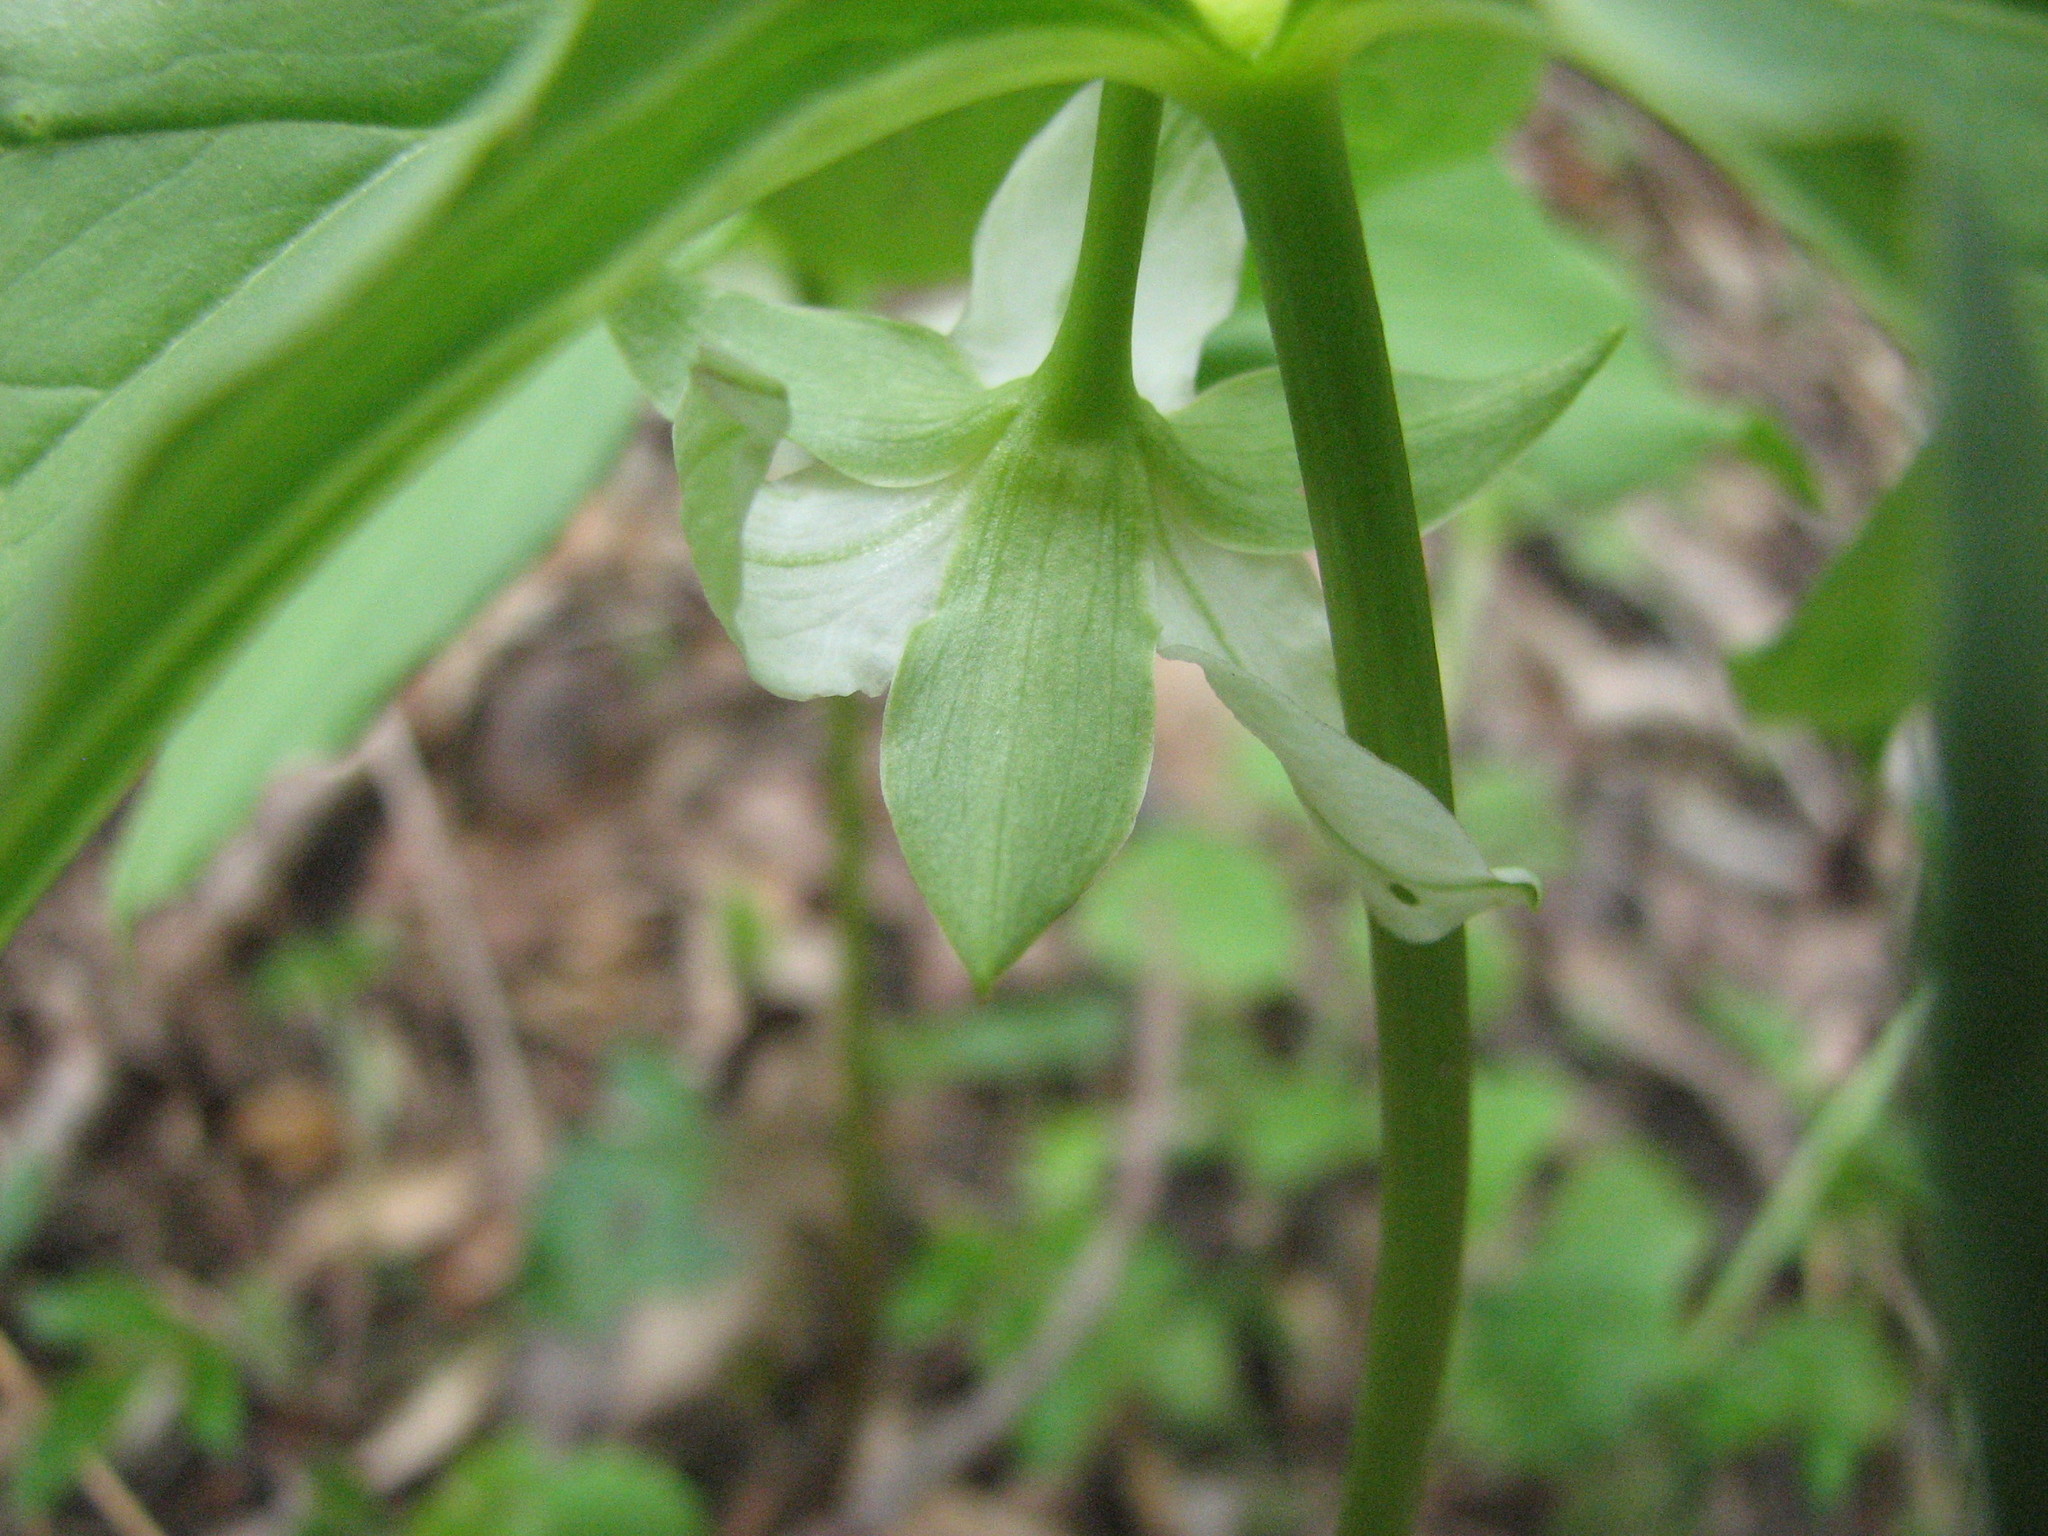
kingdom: Plantae
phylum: Tracheophyta
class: Liliopsida
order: Liliales
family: Melanthiaceae
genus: Trillium
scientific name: Trillium cernuum
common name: Nodding trillium
